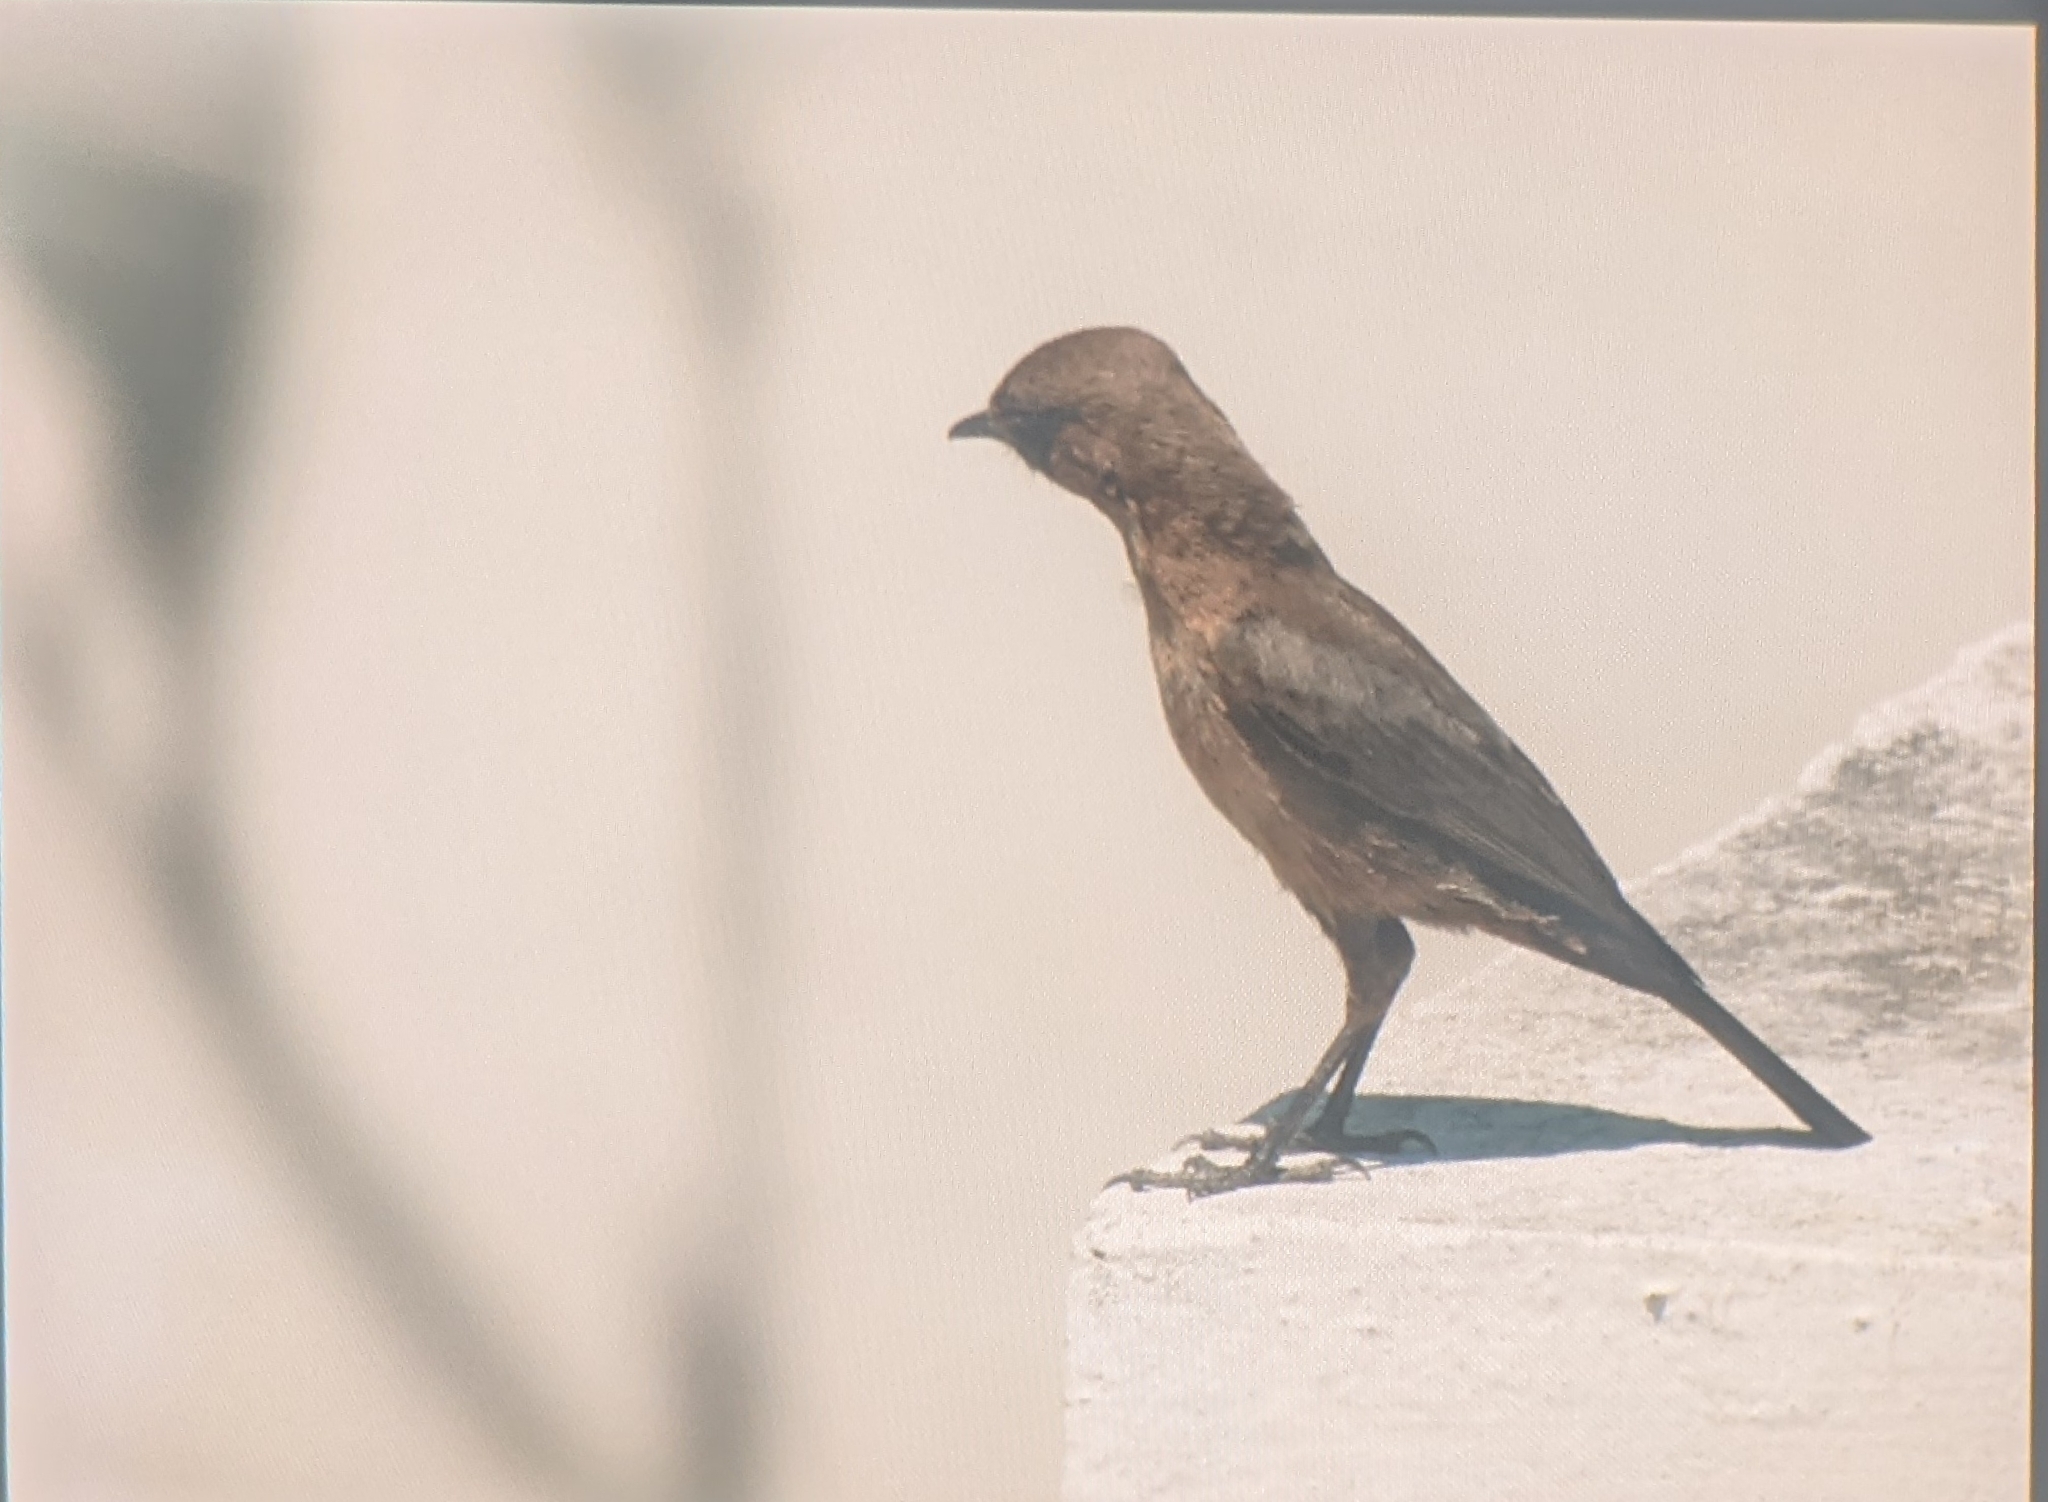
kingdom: Animalia
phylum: Chordata
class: Aves
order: Passeriformes
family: Muscicapidae
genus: Oenanthe
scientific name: Oenanthe fusca
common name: Brown rock chat
